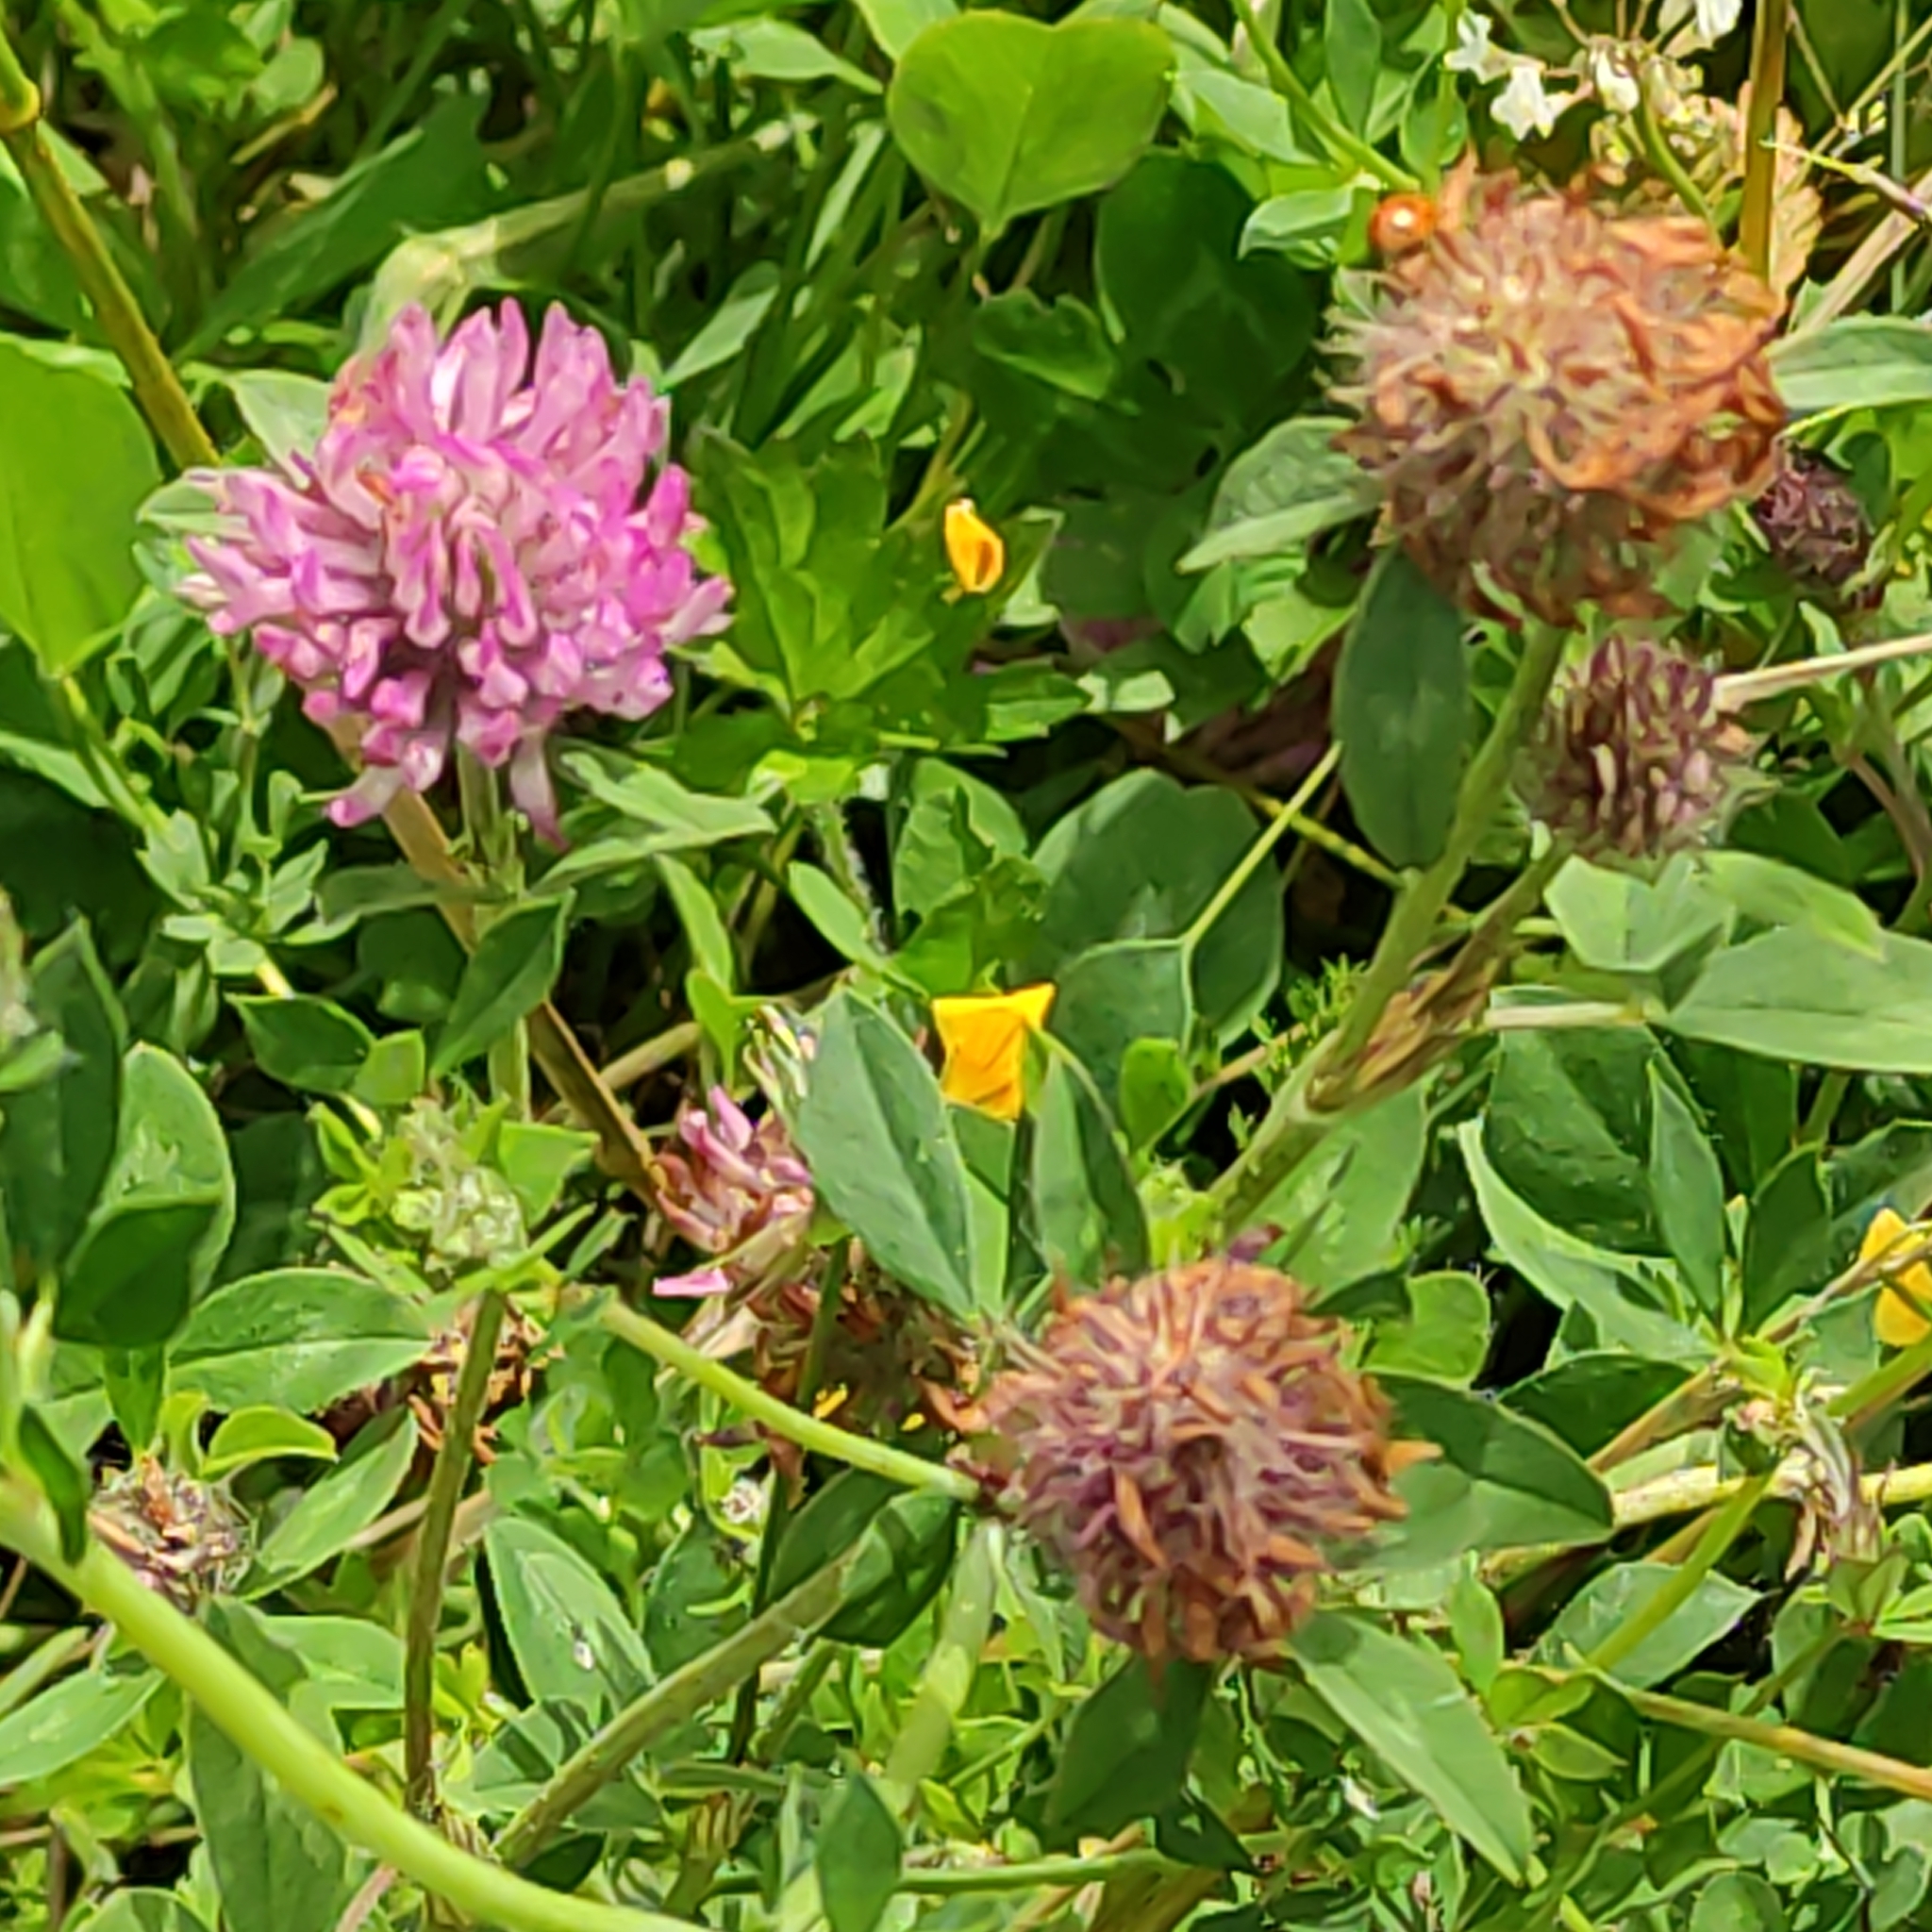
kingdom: Plantae
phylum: Tracheophyta
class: Magnoliopsida
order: Fabales
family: Fabaceae
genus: Trifolium
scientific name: Trifolium pratense
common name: Red clover
